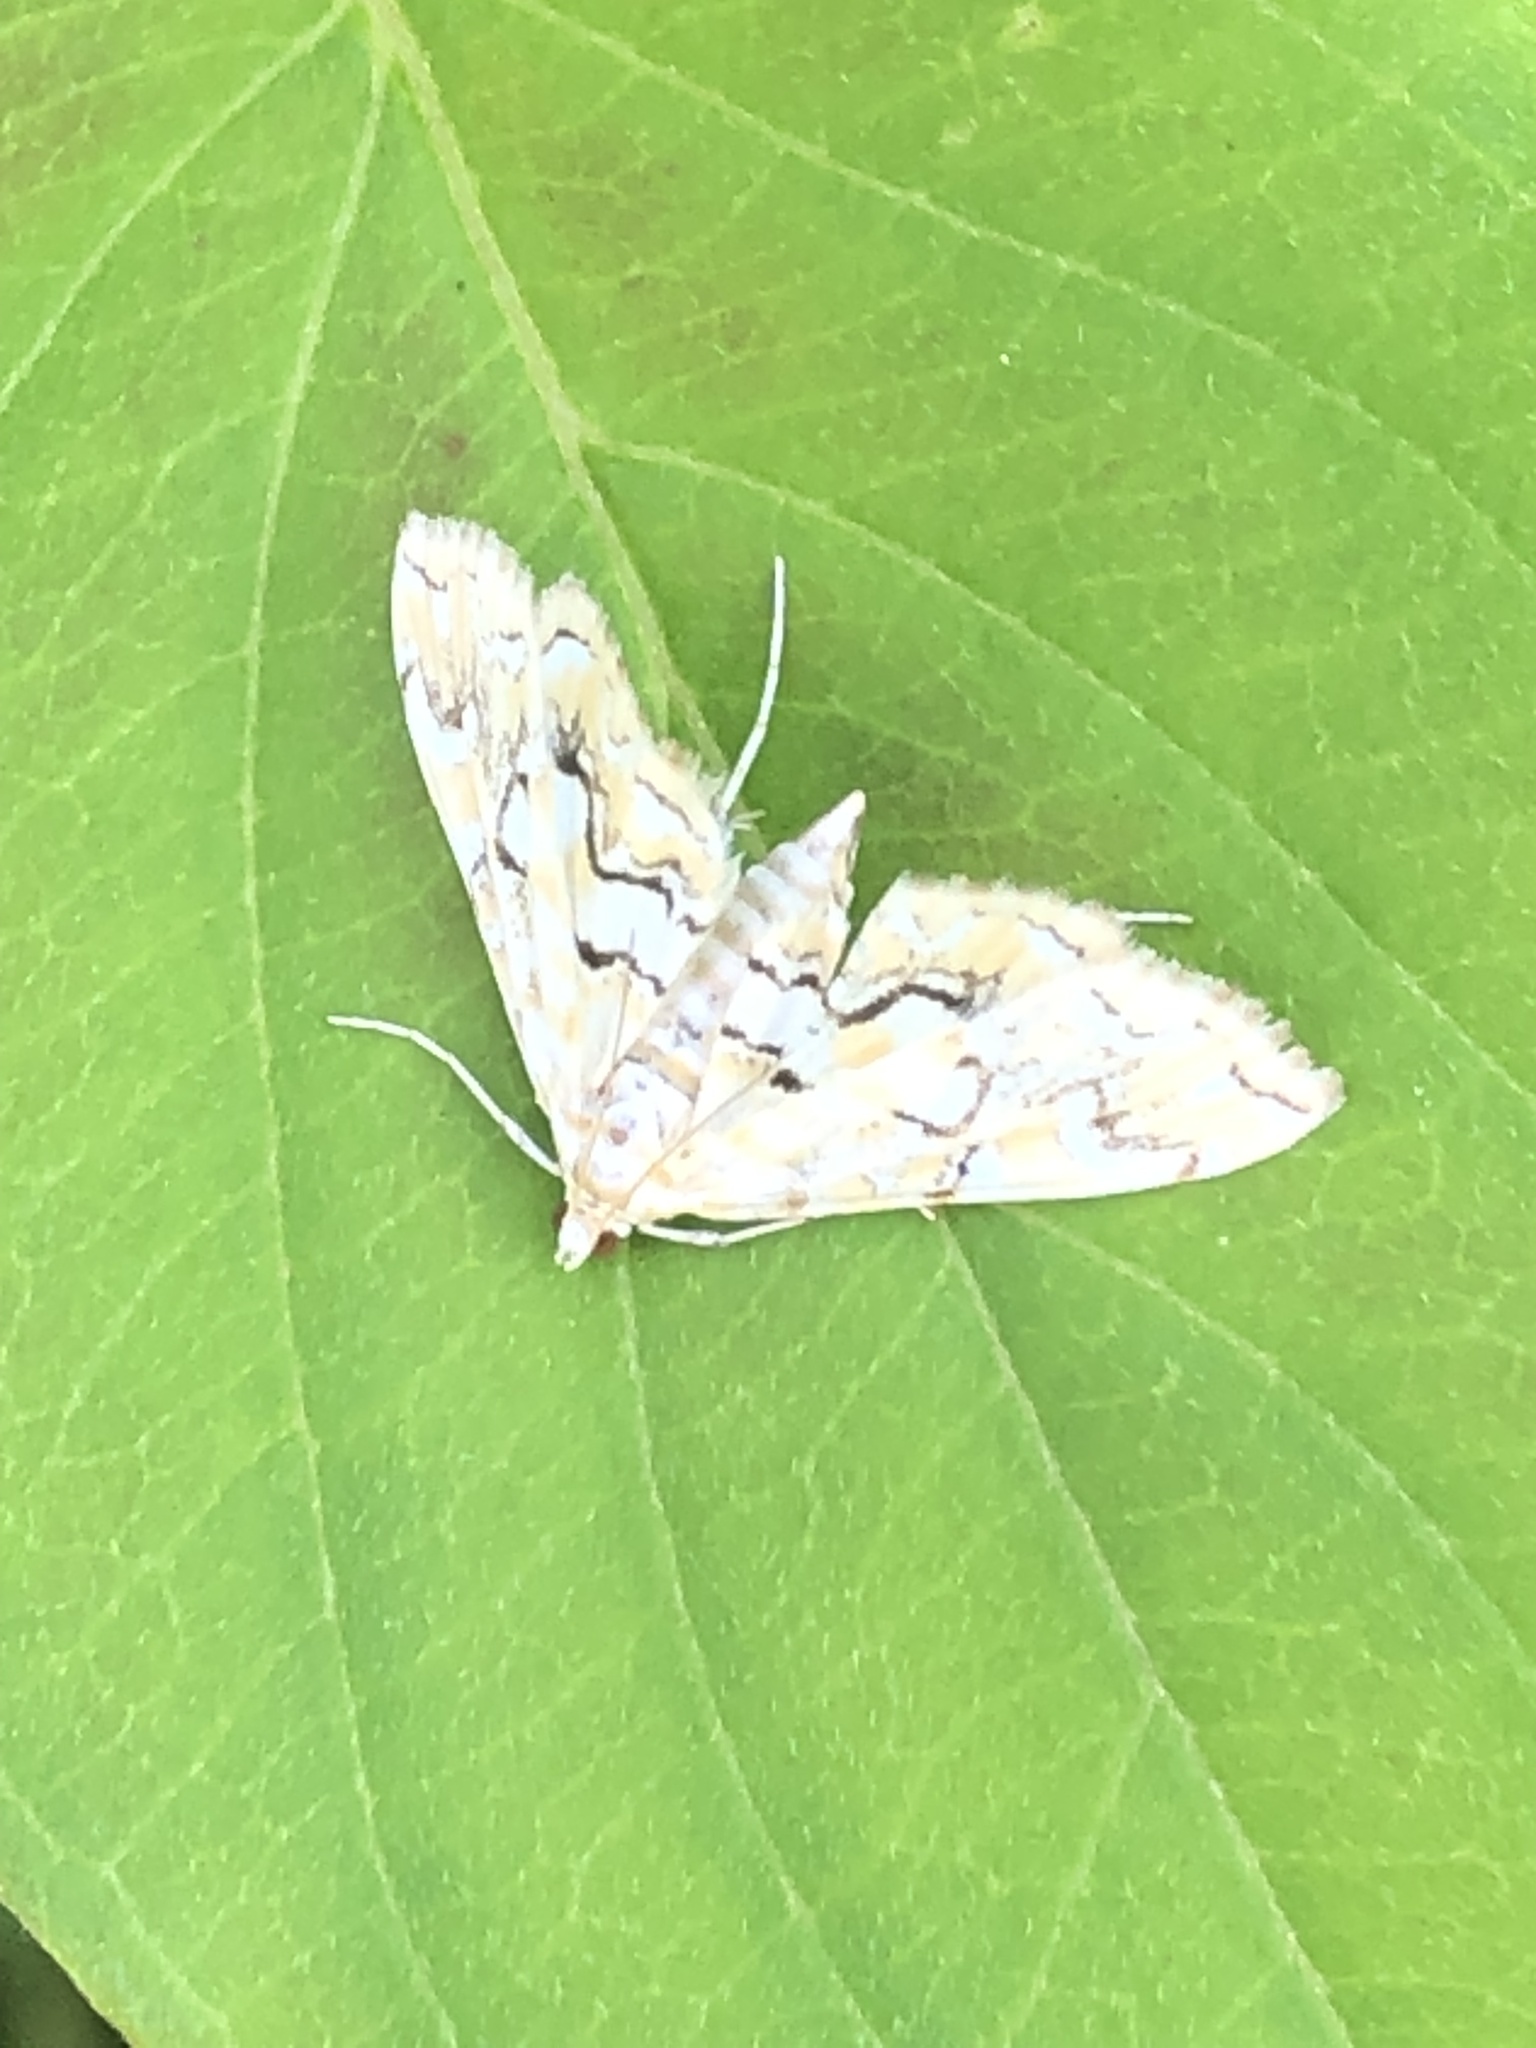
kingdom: Animalia
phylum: Arthropoda
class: Insecta
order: Lepidoptera
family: Crambidae
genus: Elophila
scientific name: Elophila icciusalis
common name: Pondside pyralid moth
